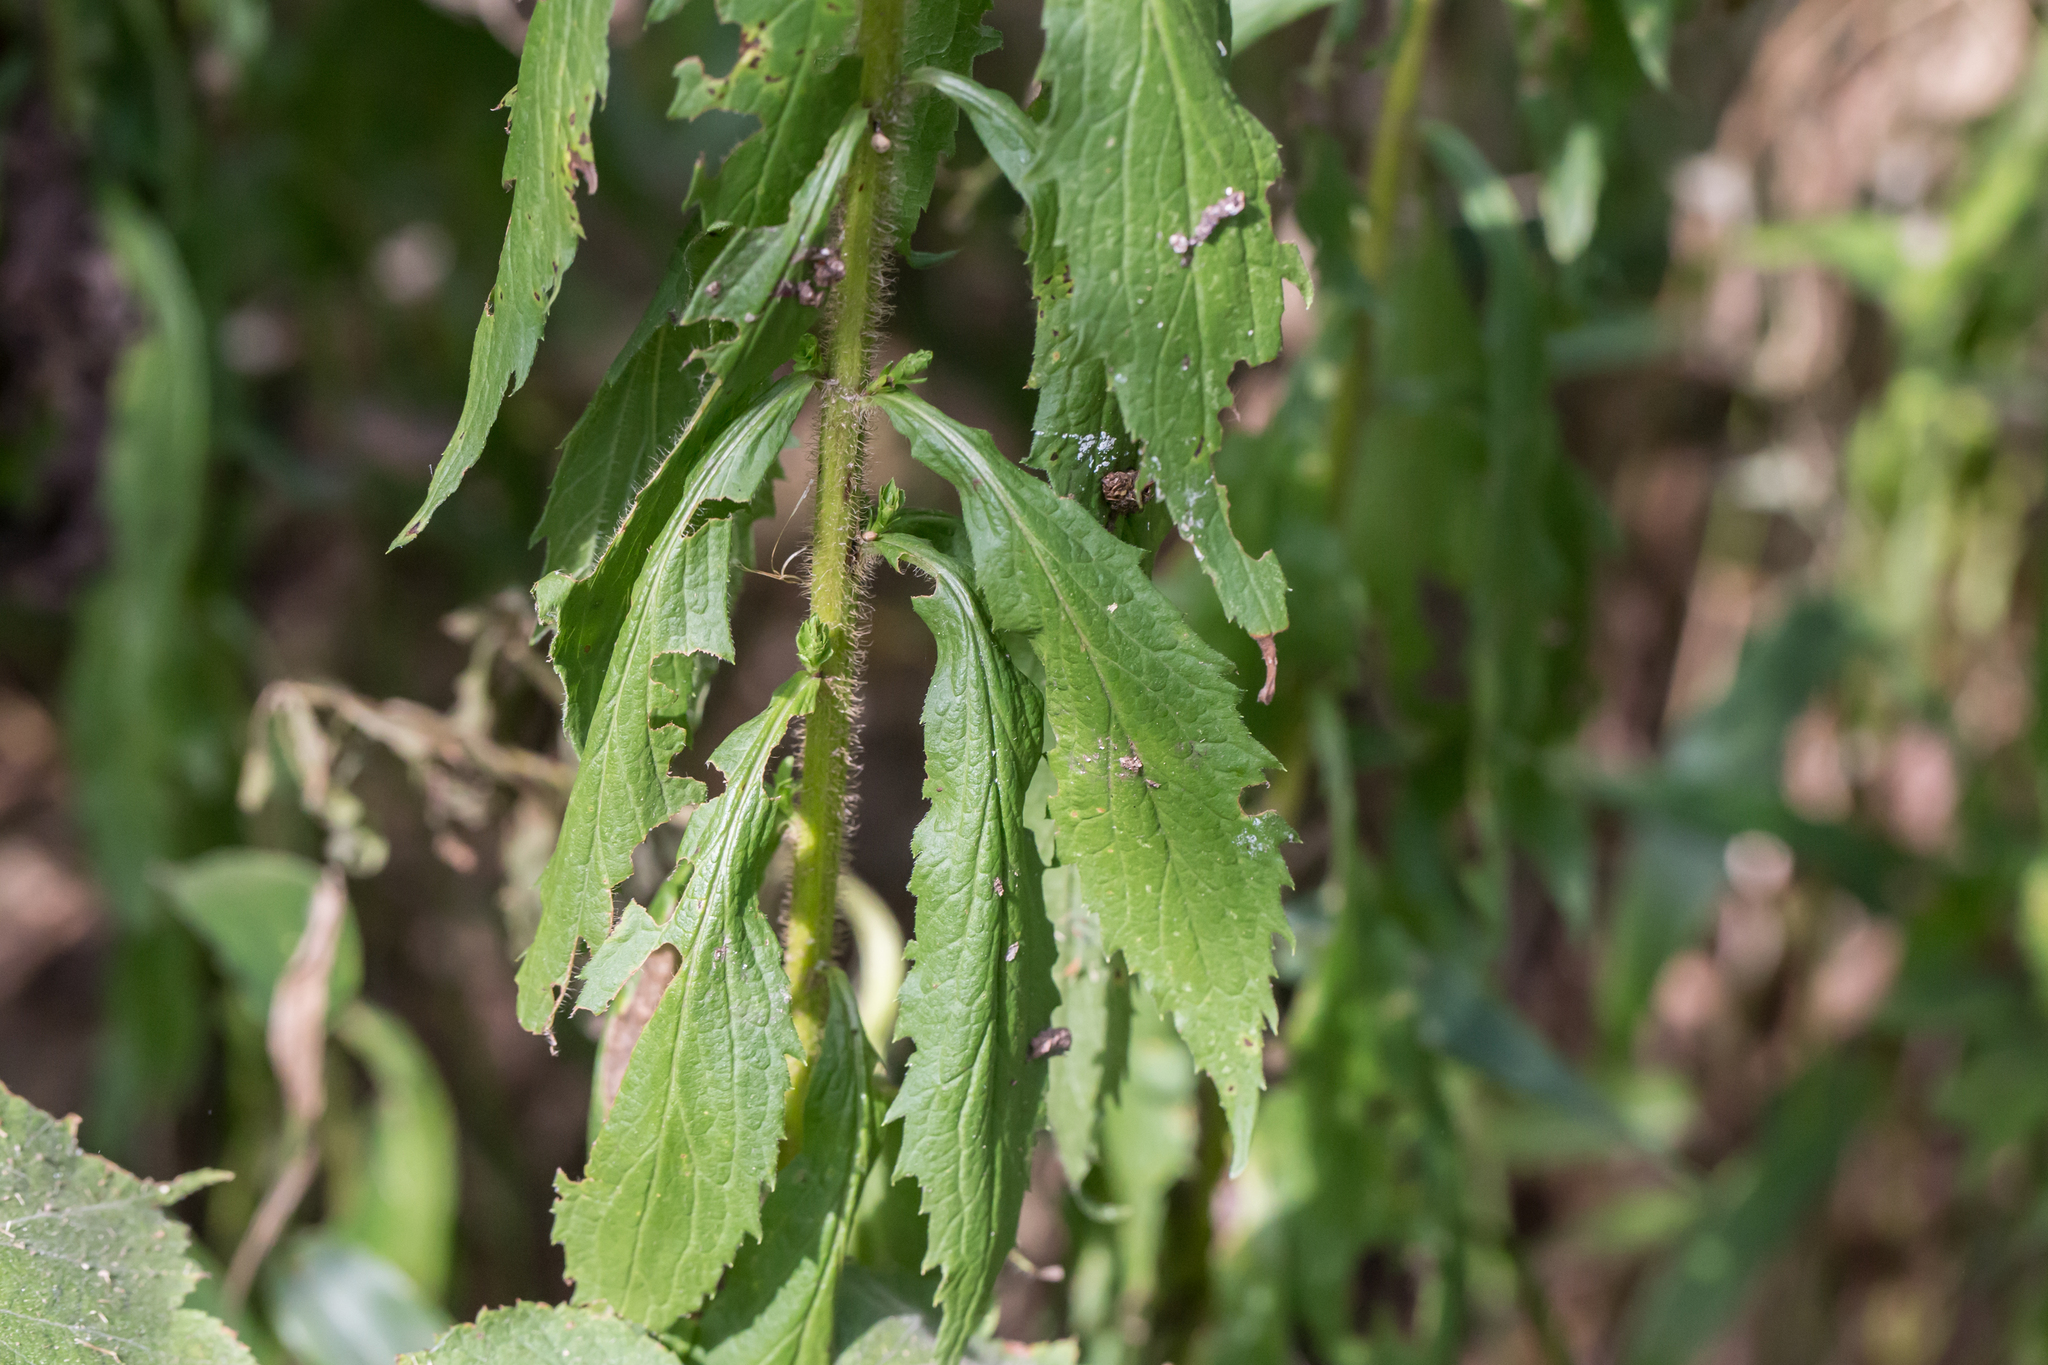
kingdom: Plantae
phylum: Tracheophyta
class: Magnoliopsida
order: Asterales
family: Asteraceae
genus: Solidago
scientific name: Solidago rugosa
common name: Rough-stemmed goldenrod
